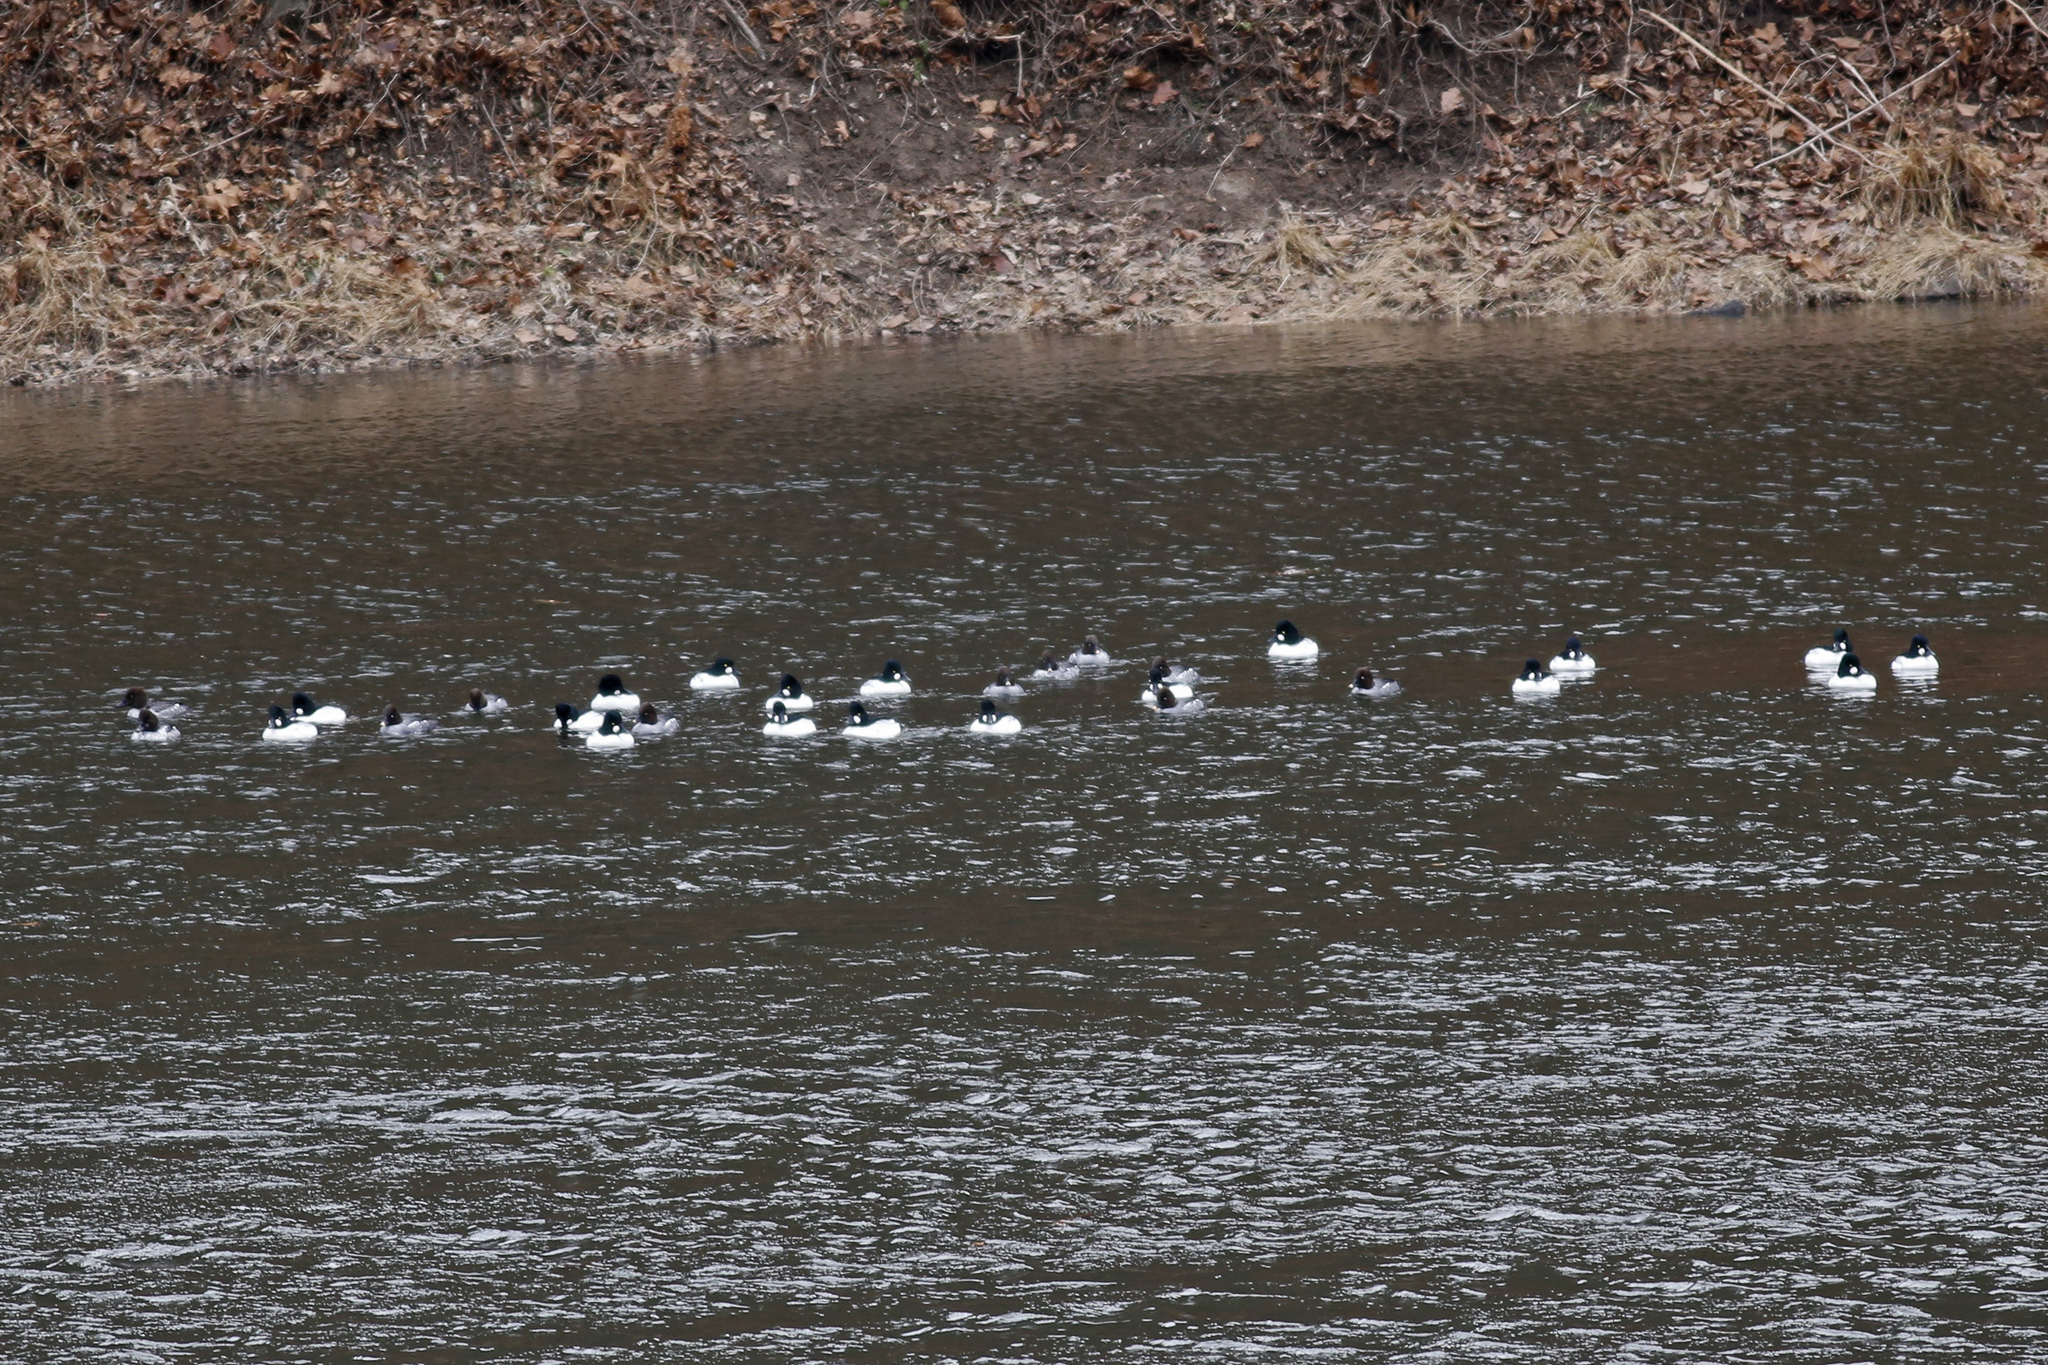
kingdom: Animalia
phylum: Chordata
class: Aves
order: Anseriformes
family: Anatidae
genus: Bucephala
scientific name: Bucephala clangula
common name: Common goldeneye
